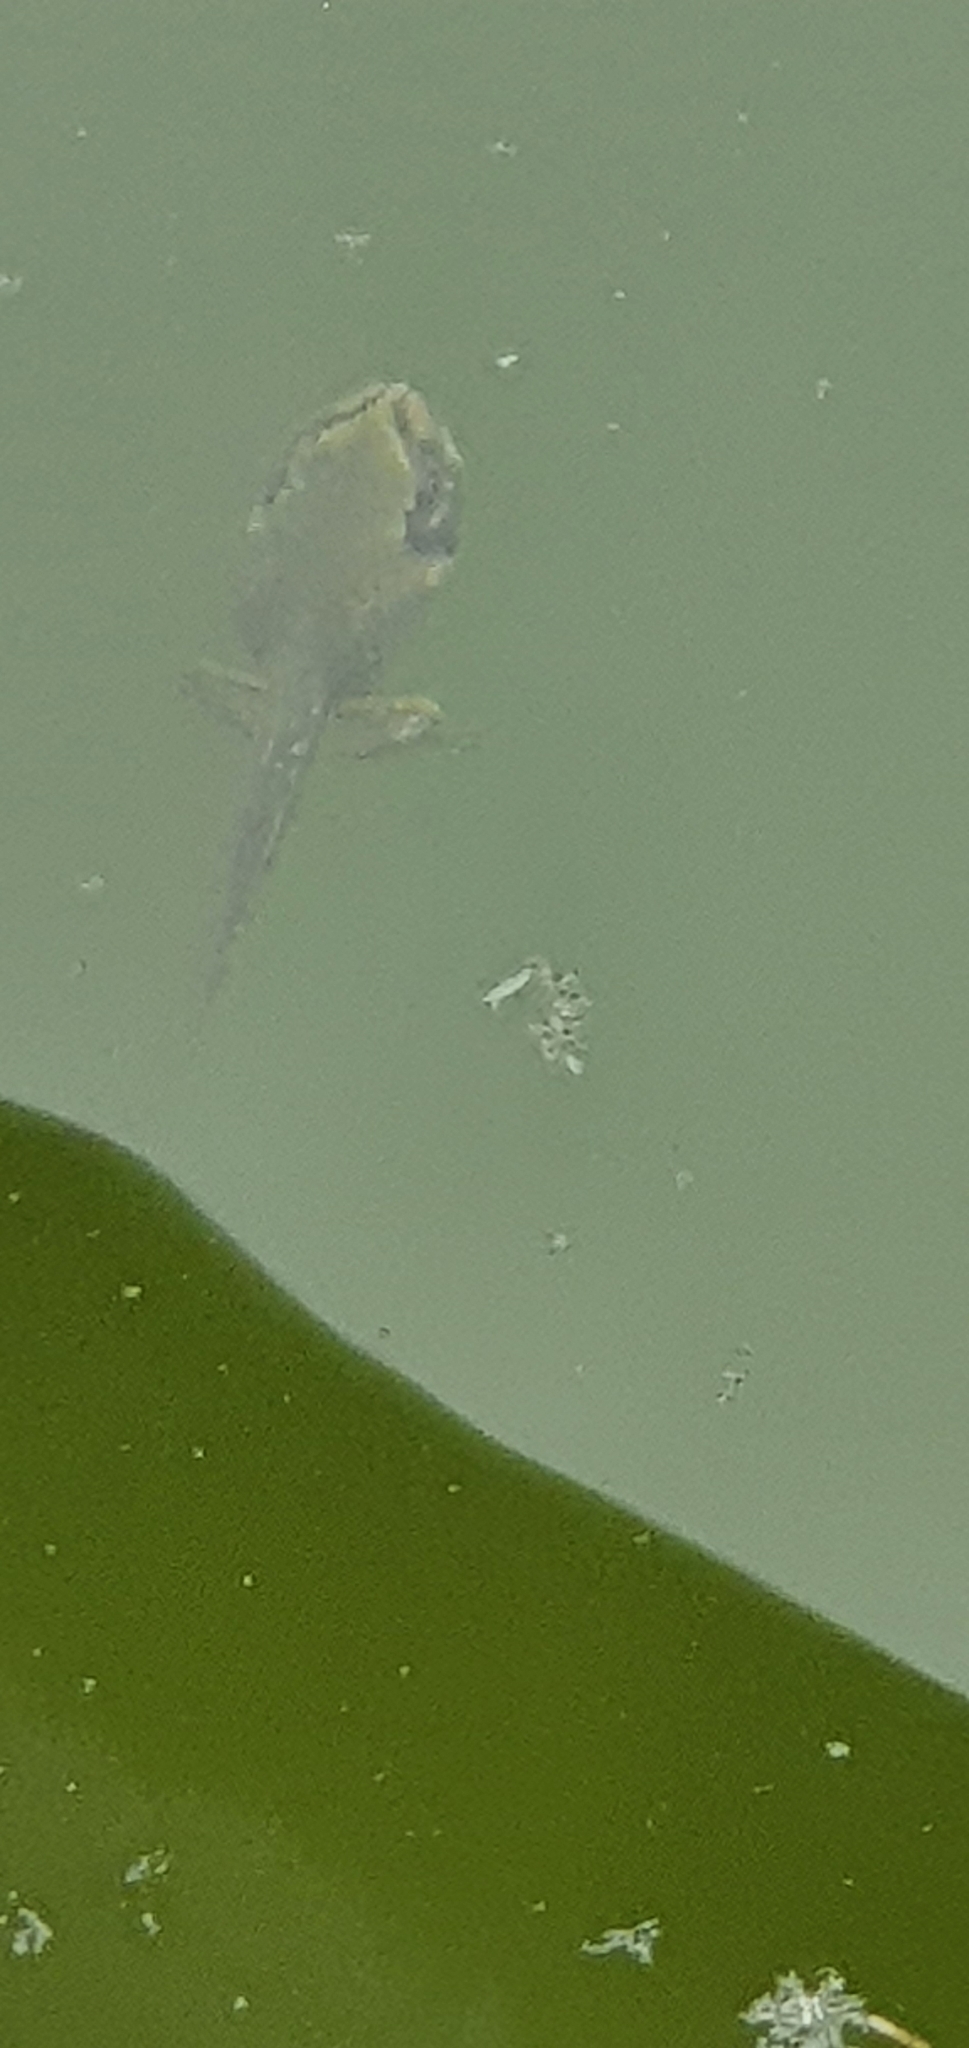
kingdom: Animalia
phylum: Chordata
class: Amphibia
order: Anura
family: Pelodryadidae
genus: Ranoidea
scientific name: Ranoidea caerulea
